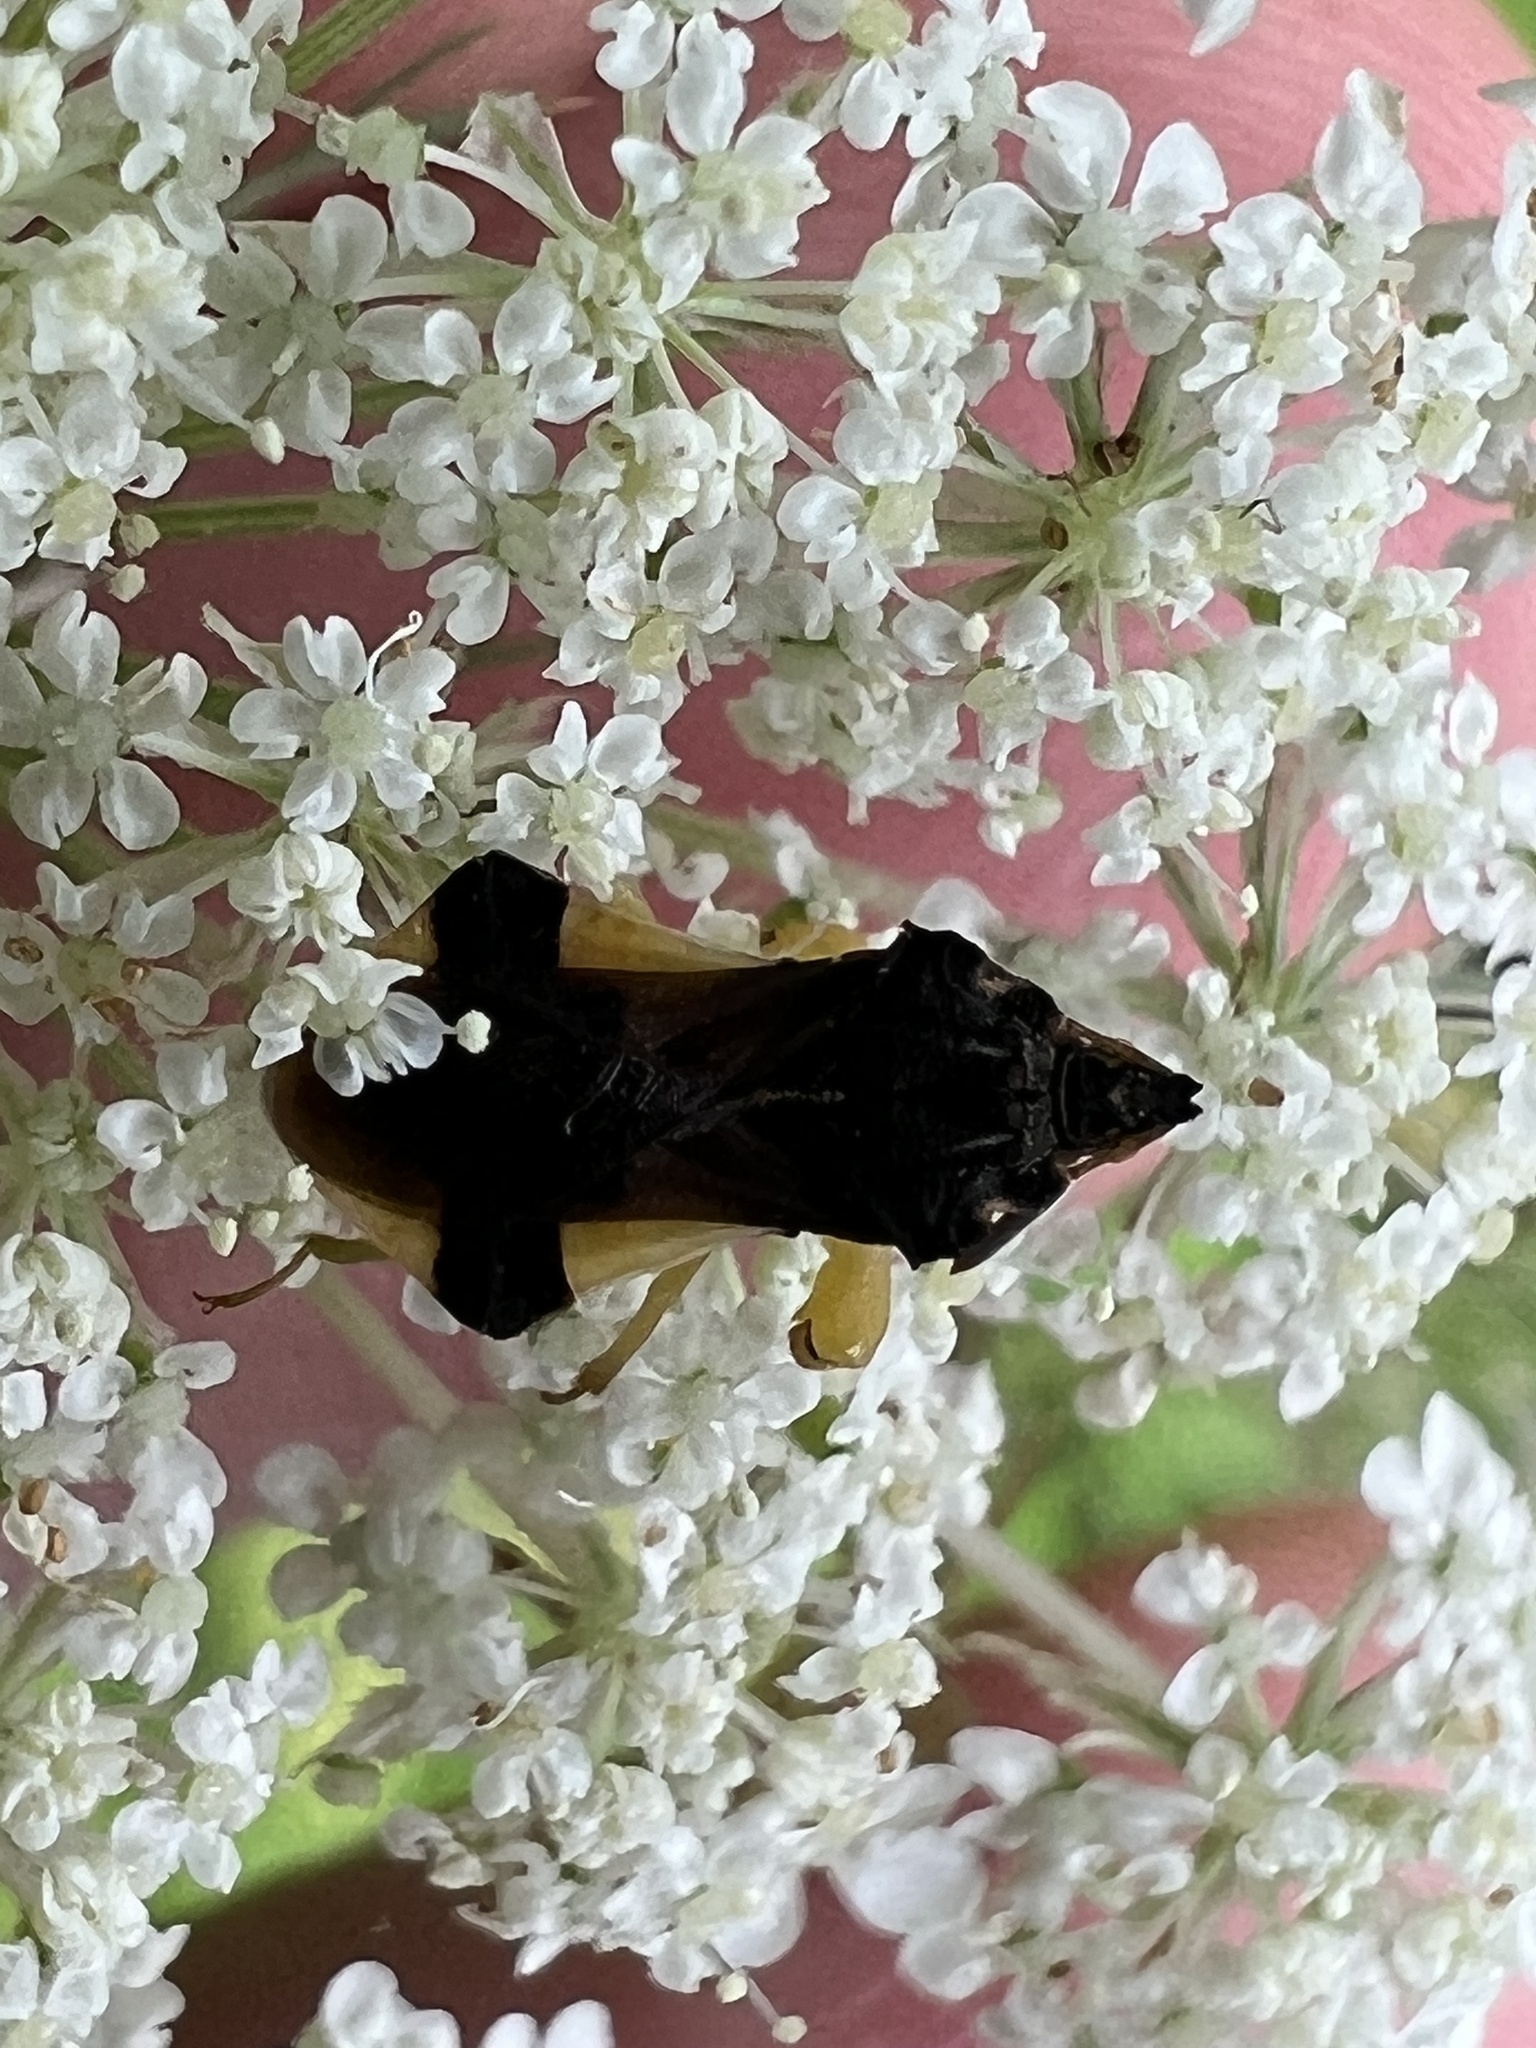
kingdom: Animalia
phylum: Arthropoda
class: Insecta
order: Hemiptera
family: Reduviidae
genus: Phymata
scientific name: Phymata pennsylvanica
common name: Pennsylvania ambush bug
